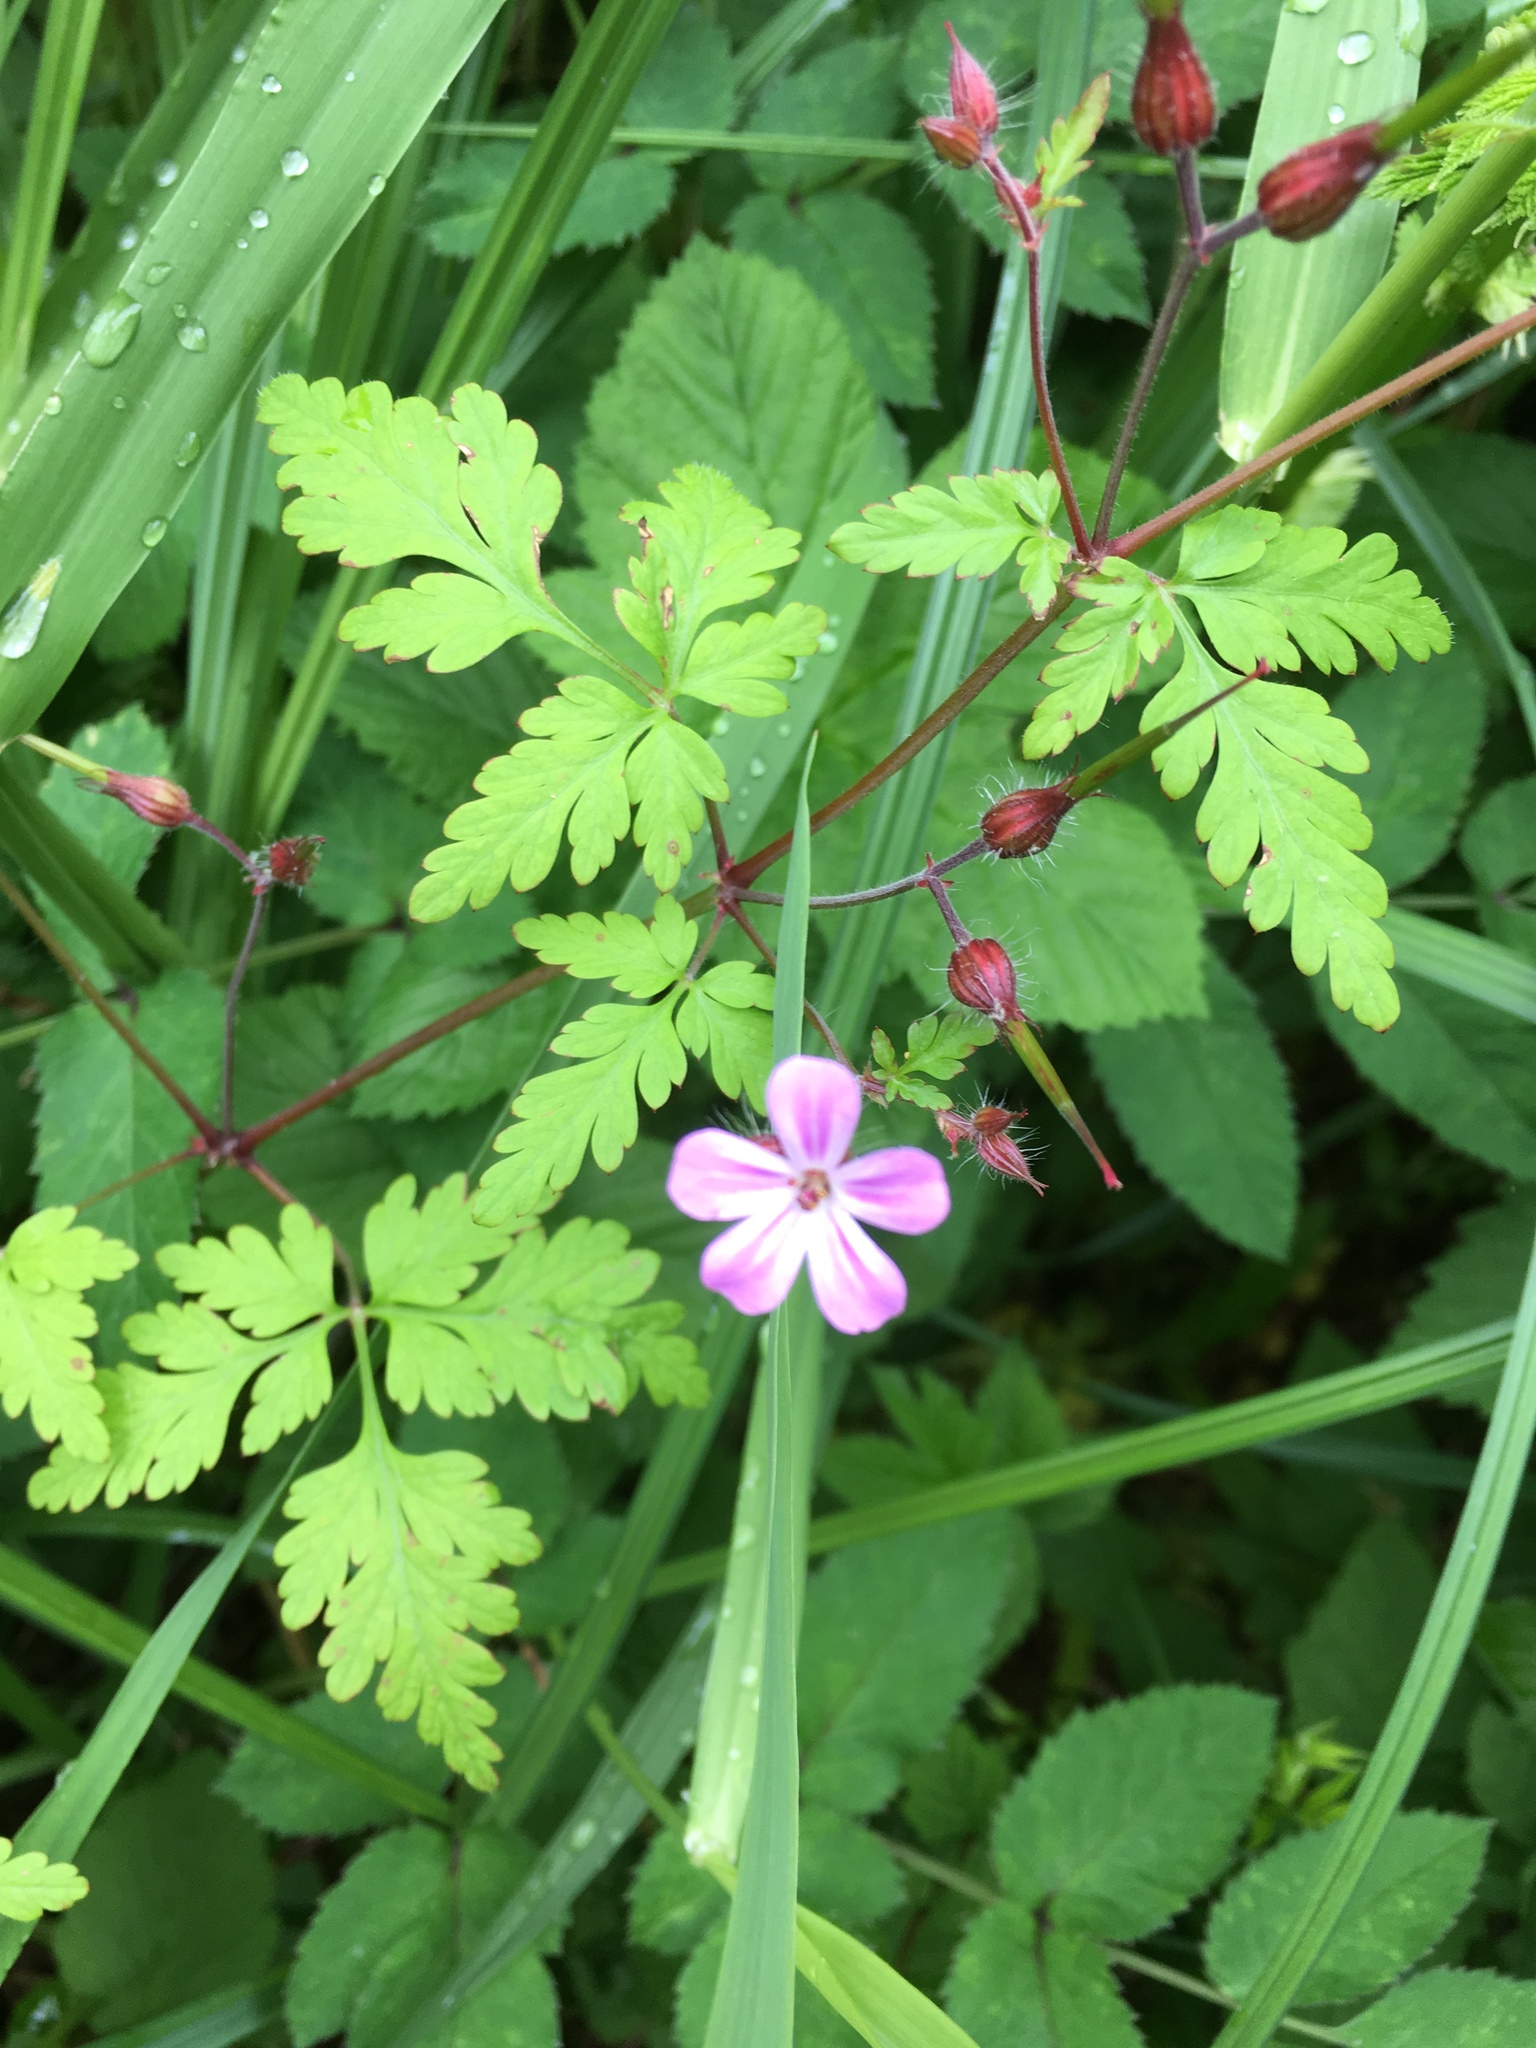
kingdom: Plantae
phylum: Tracheophyta
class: Magnoliopsida
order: Geraniales
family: Geraniaceae
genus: Geranium
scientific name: Geranium robertianum
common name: Herb-robert
